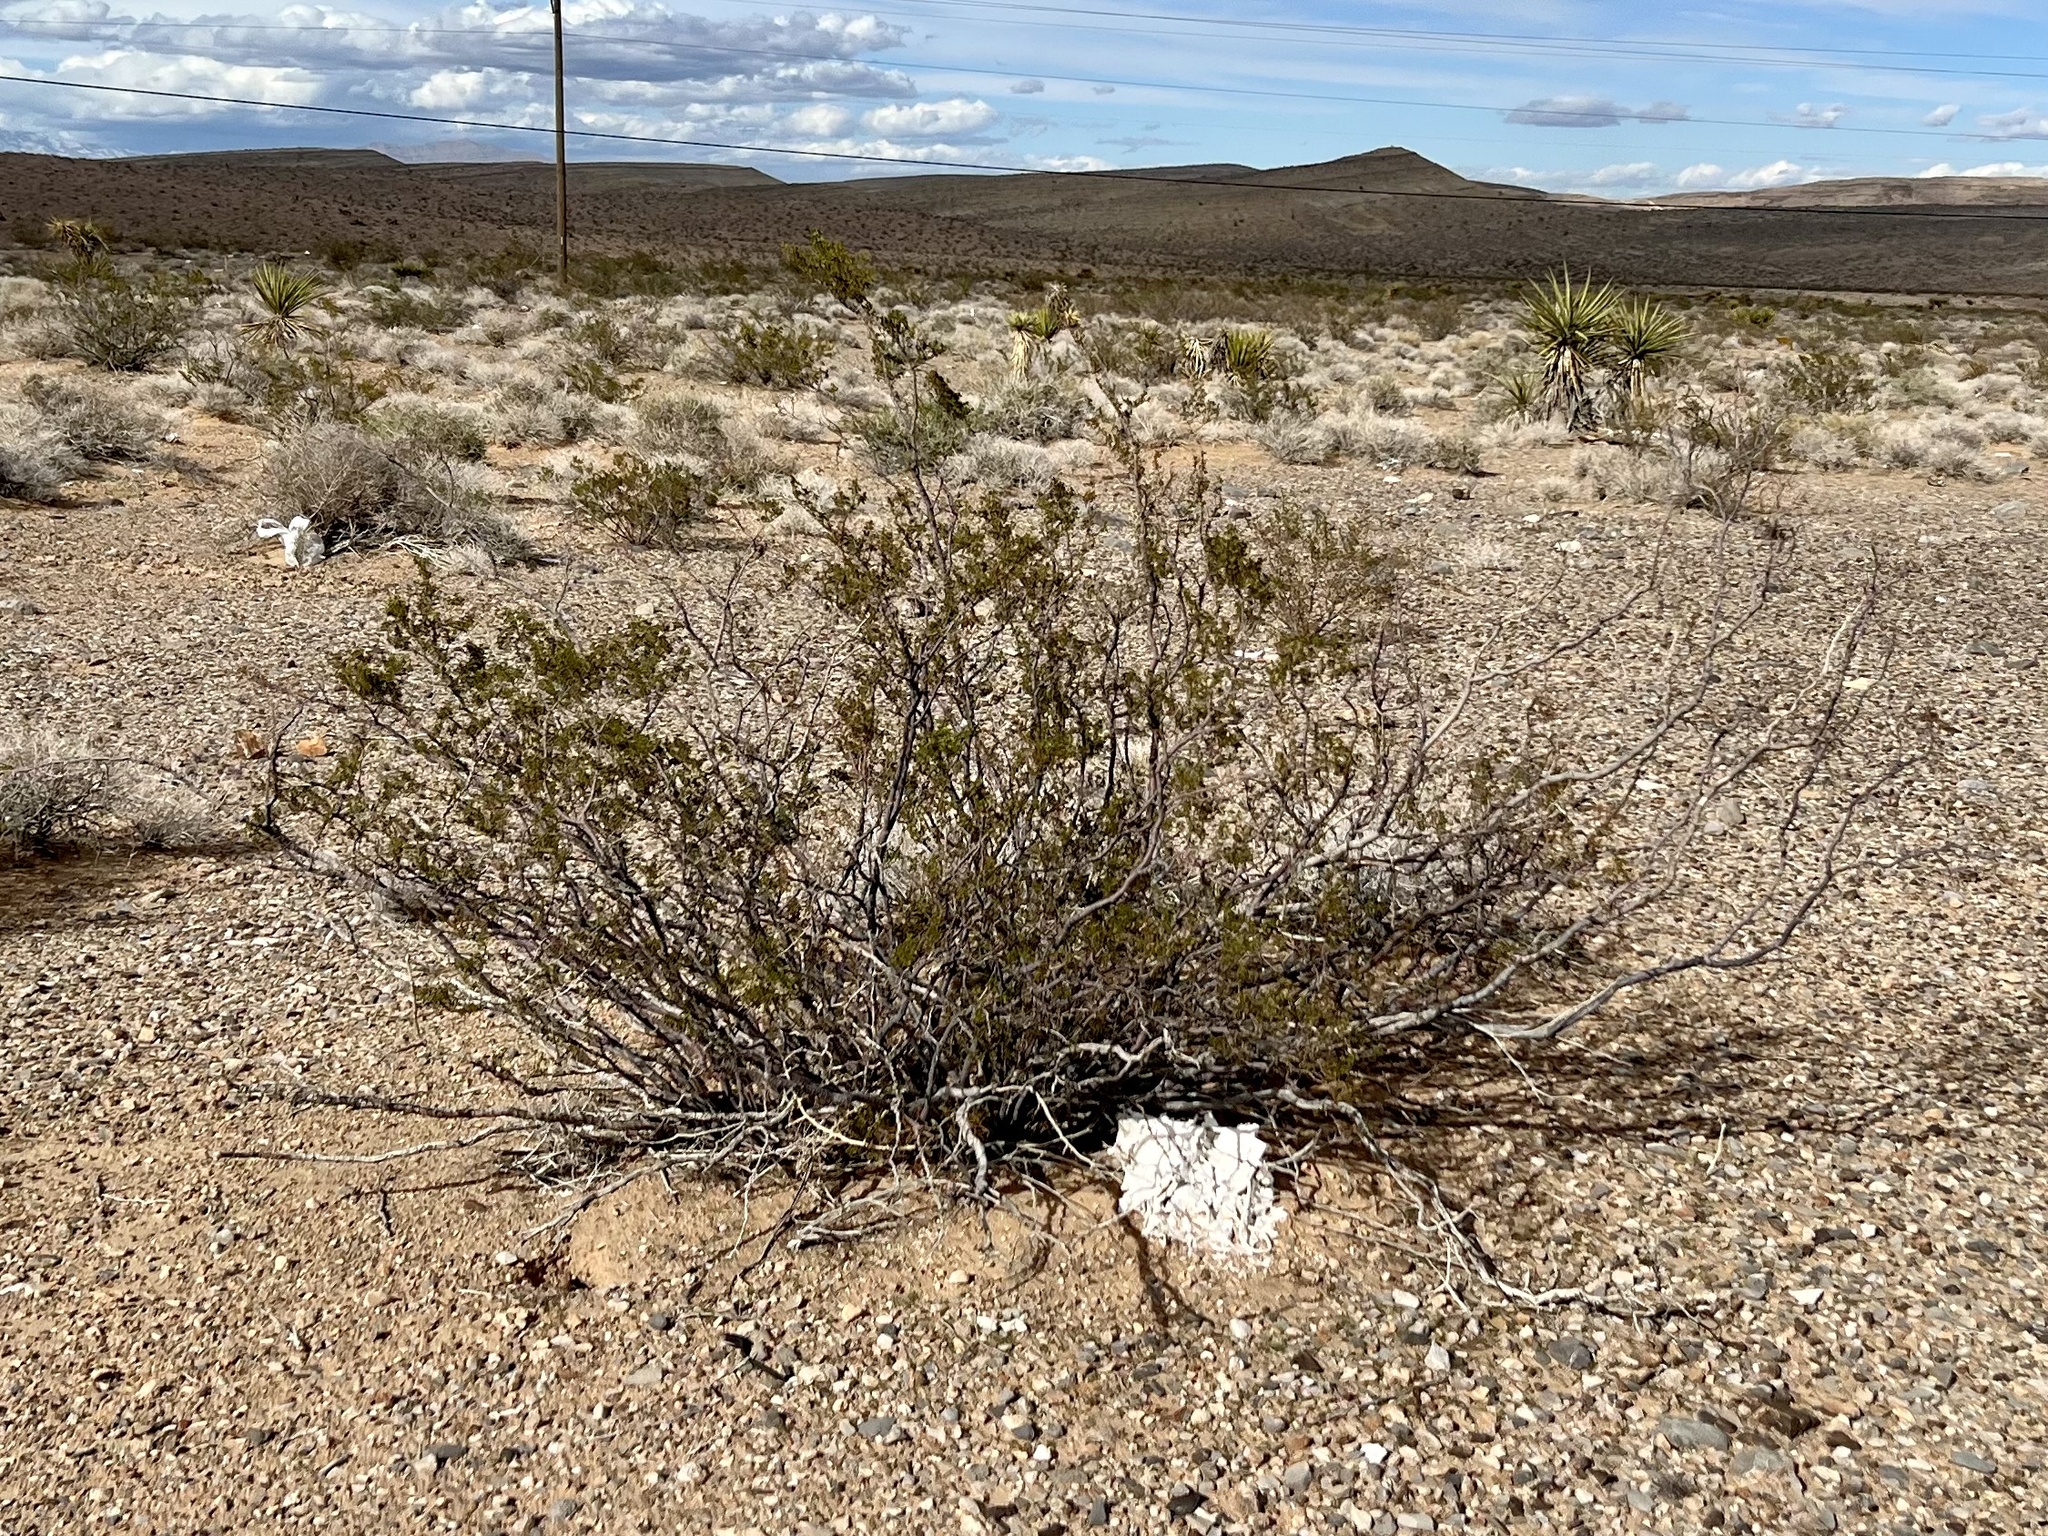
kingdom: Plantae
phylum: Tracheophyta
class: Magnoliopsida
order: Zygophyllales
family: Zygophyllaceae
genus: Larrea
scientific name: Larrea tridentata
